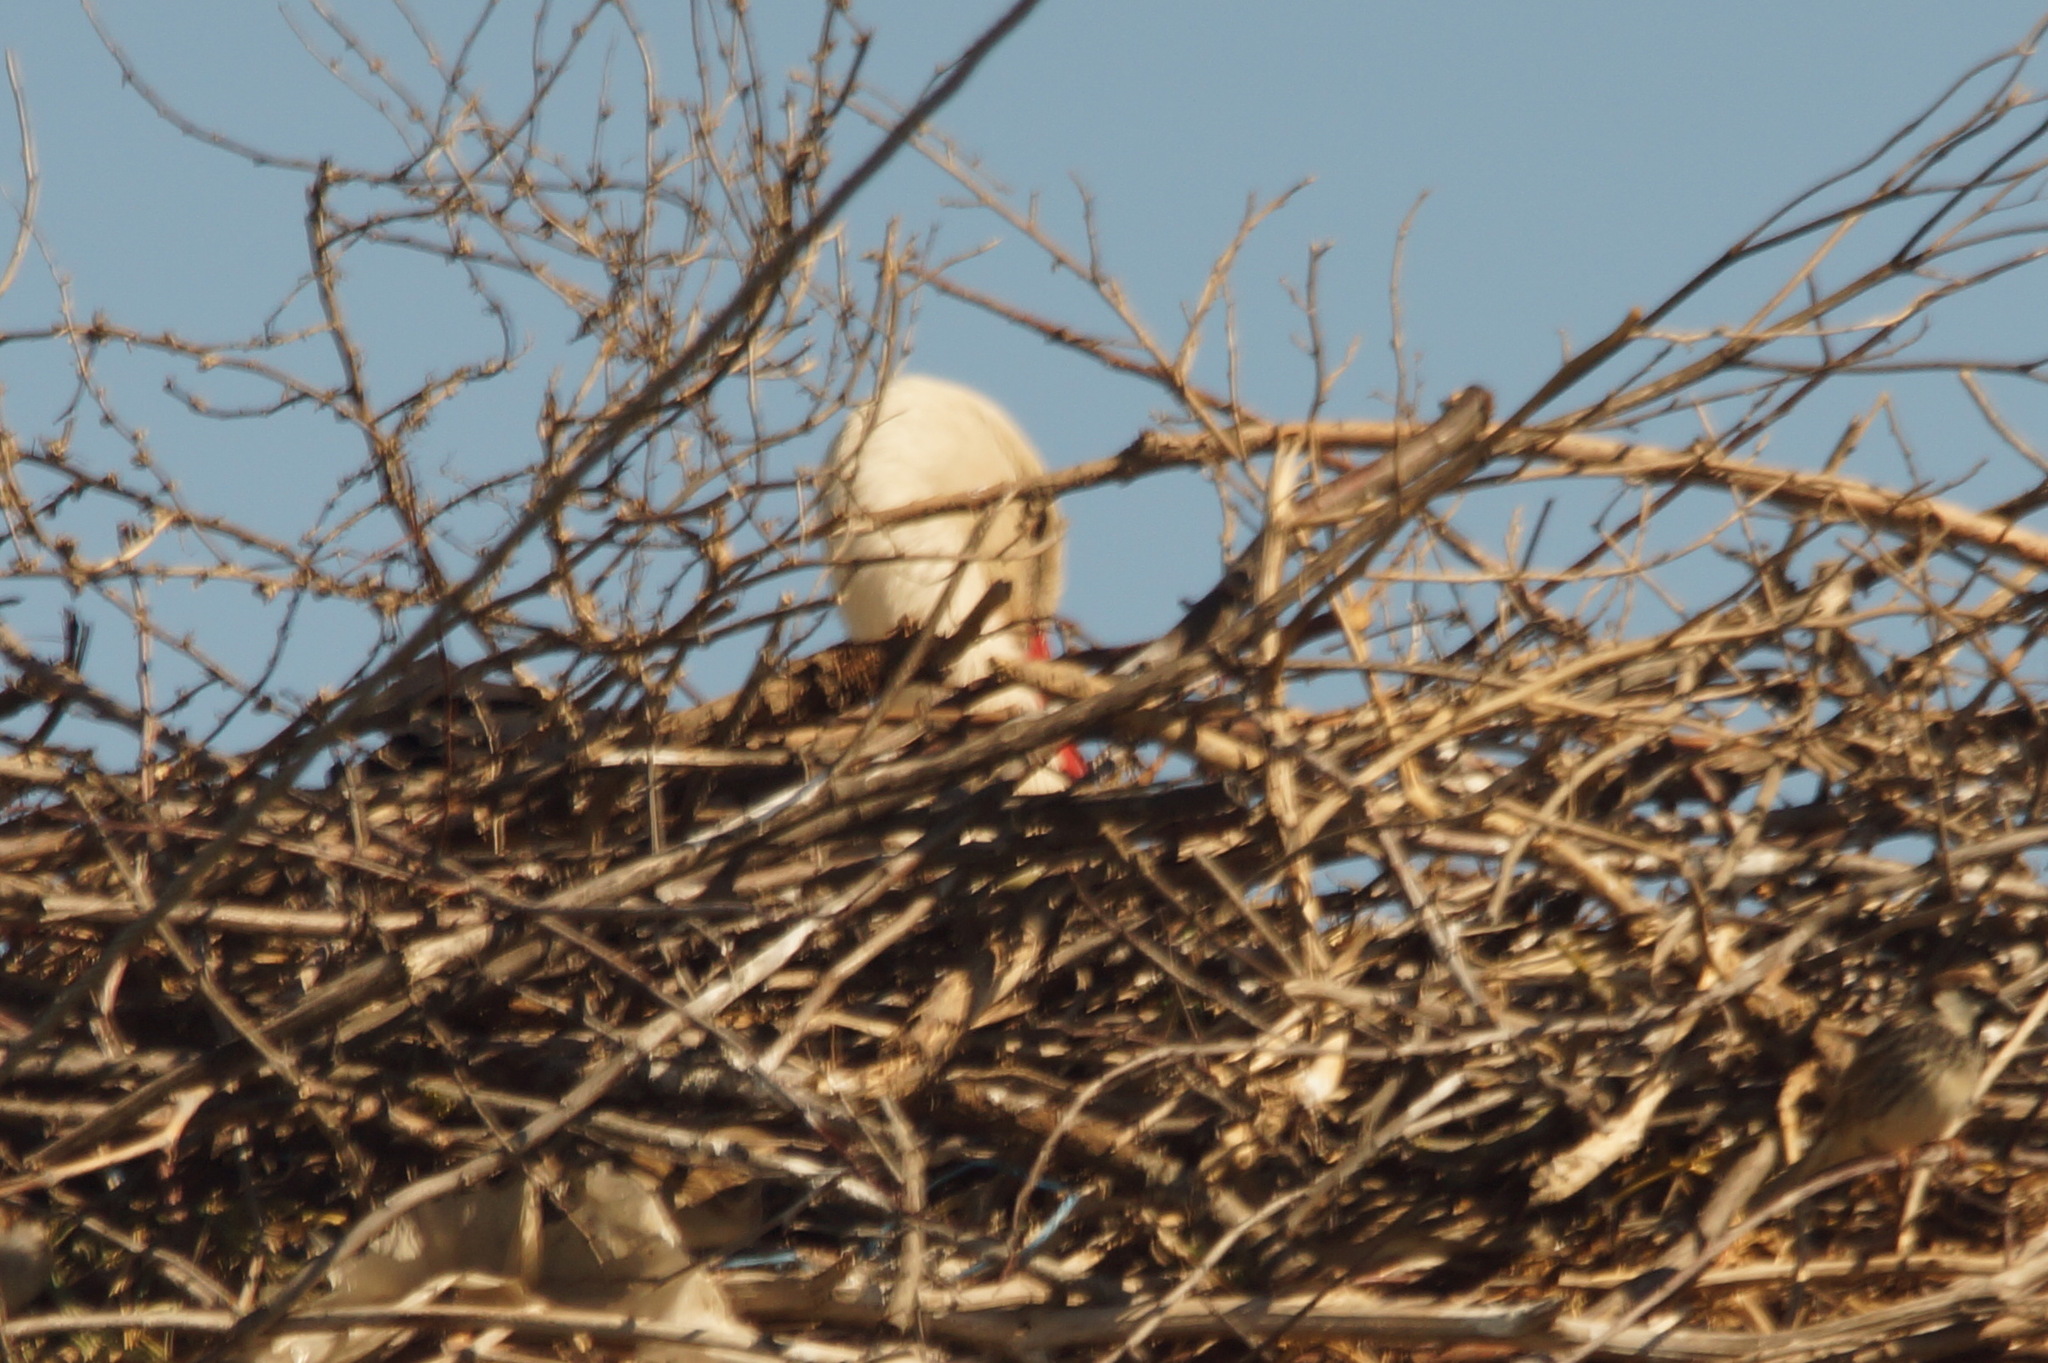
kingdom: Animalia
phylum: Chordata
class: Aves
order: Ciconiiformes
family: Ciconiidae
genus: Ciconia
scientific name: Ciconia ciconia
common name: White stork
